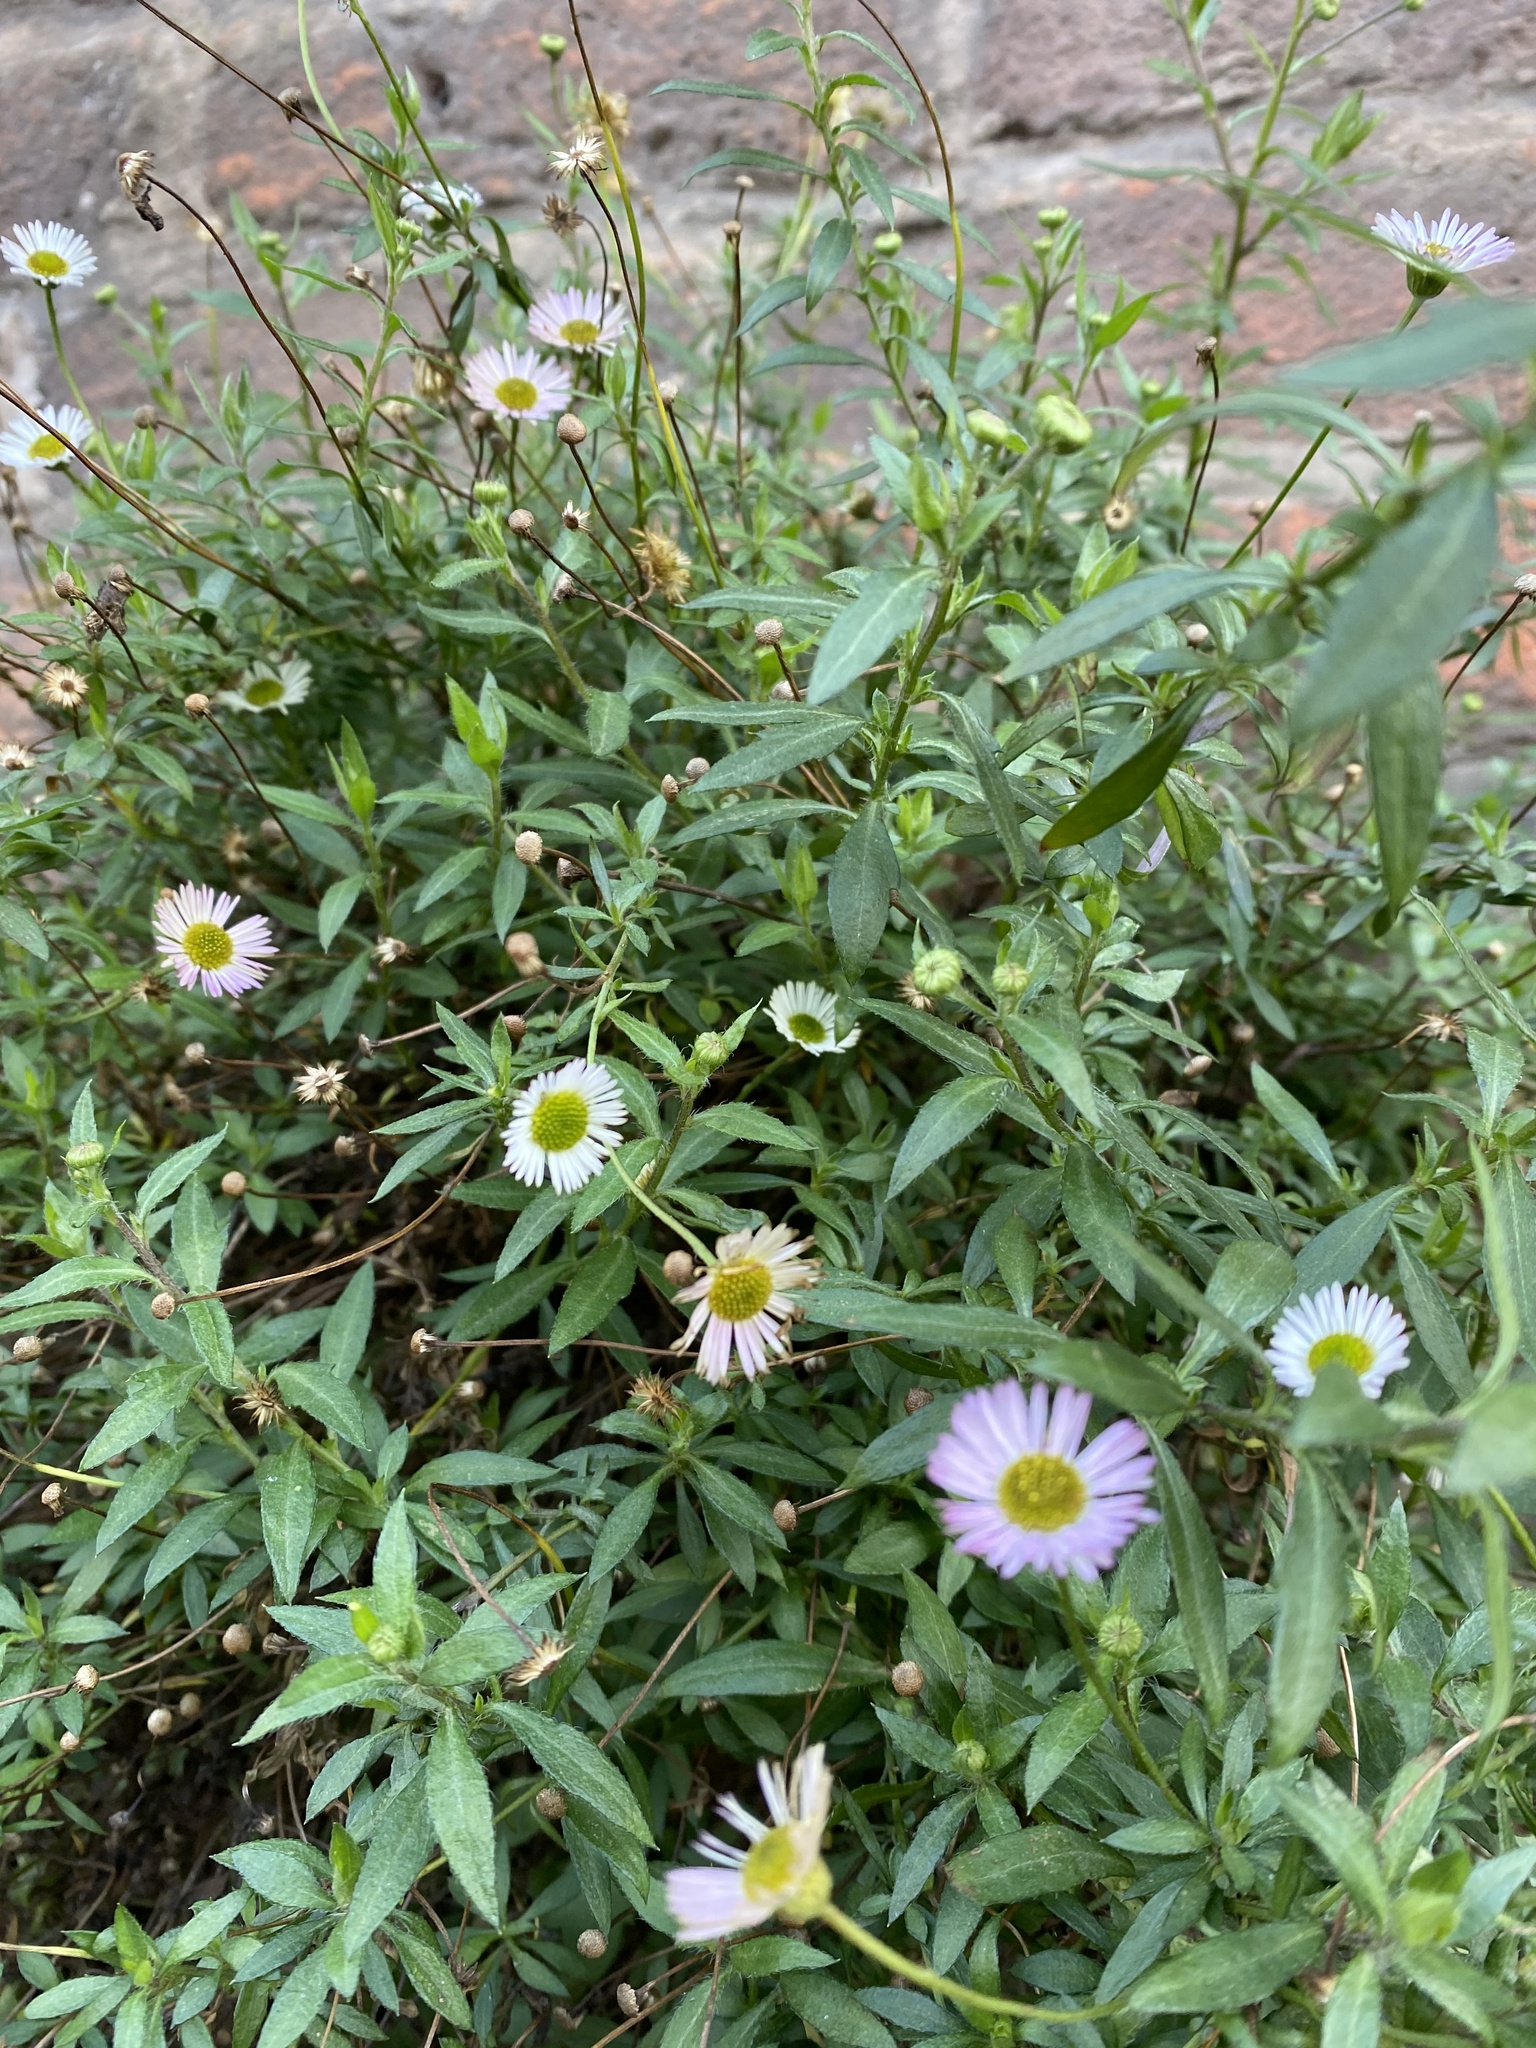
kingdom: Plantae
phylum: Tracheophyta
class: Magnoliopsida
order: Asterales
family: Asteraceae
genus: Erigeron
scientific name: Erigeron karvinskianus
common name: Mexican fleabane
